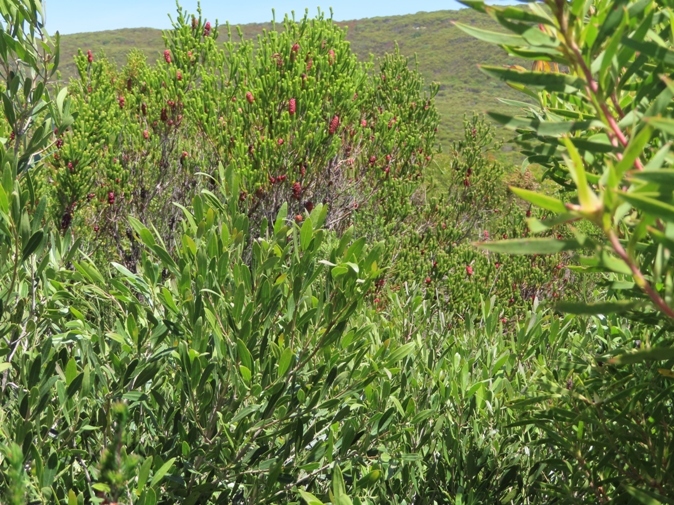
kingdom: Plantae
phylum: Tracheophyta
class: Magnoliopsida
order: Ericales
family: Ericaceae
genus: Erica
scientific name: Erica sessiliflora
